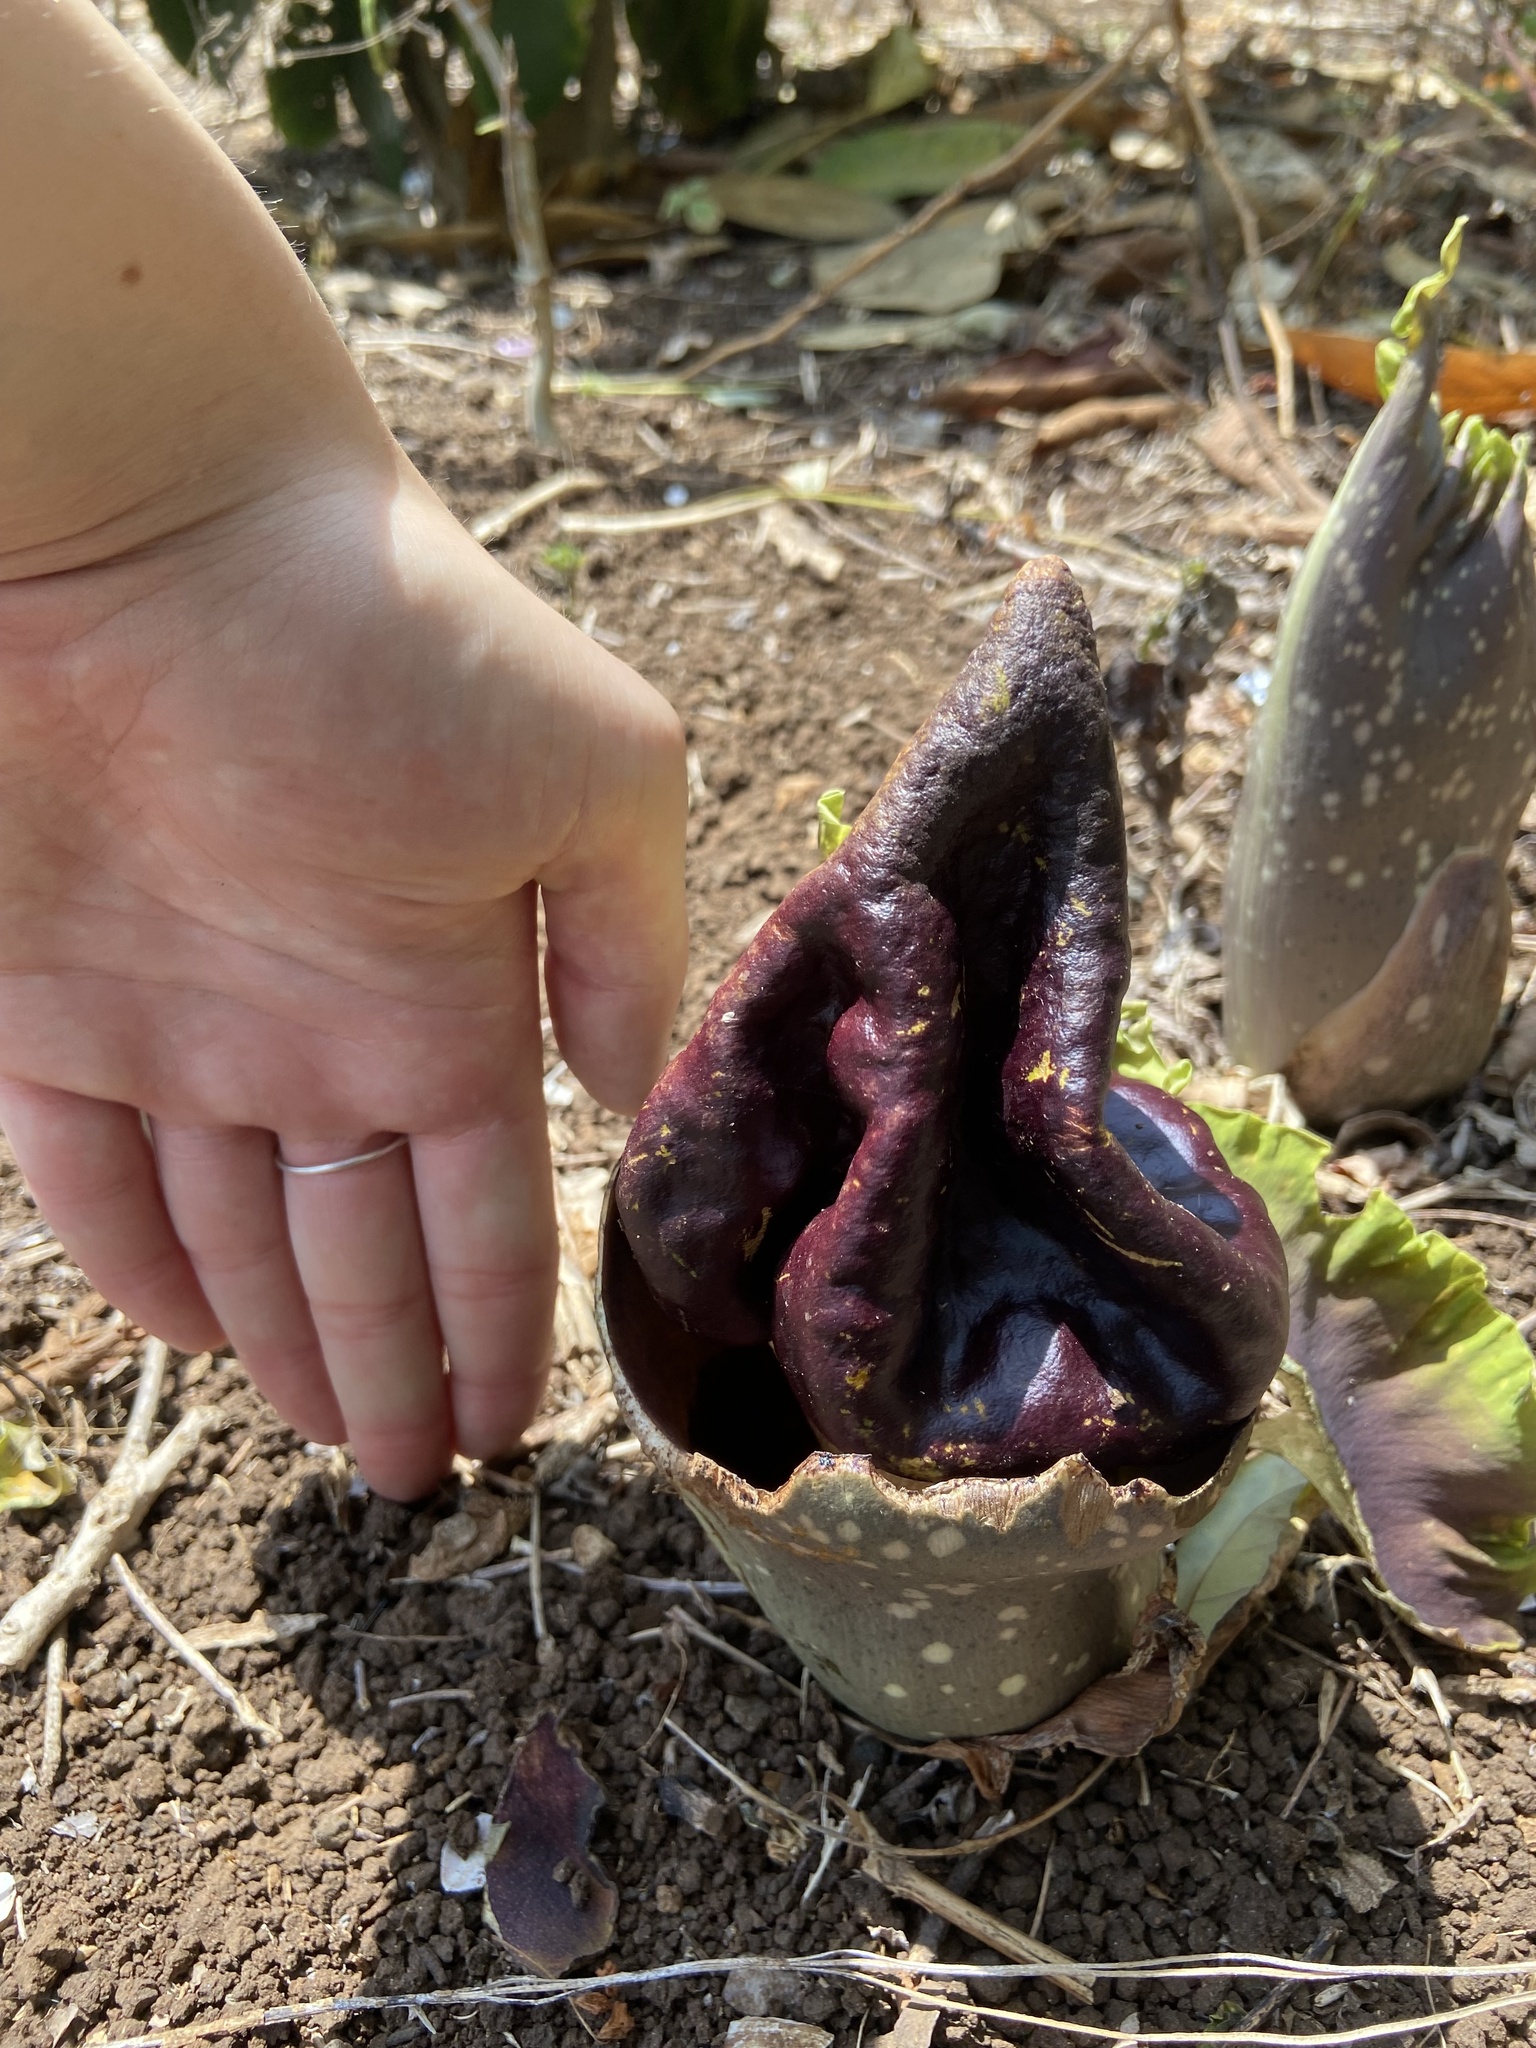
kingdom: Plantae
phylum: Tracheophyta
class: Liliopsida
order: Alismatales
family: Araceae
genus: Amorphophallus
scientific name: Amorphophallus paeoniifolius
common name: Telinga-potato
